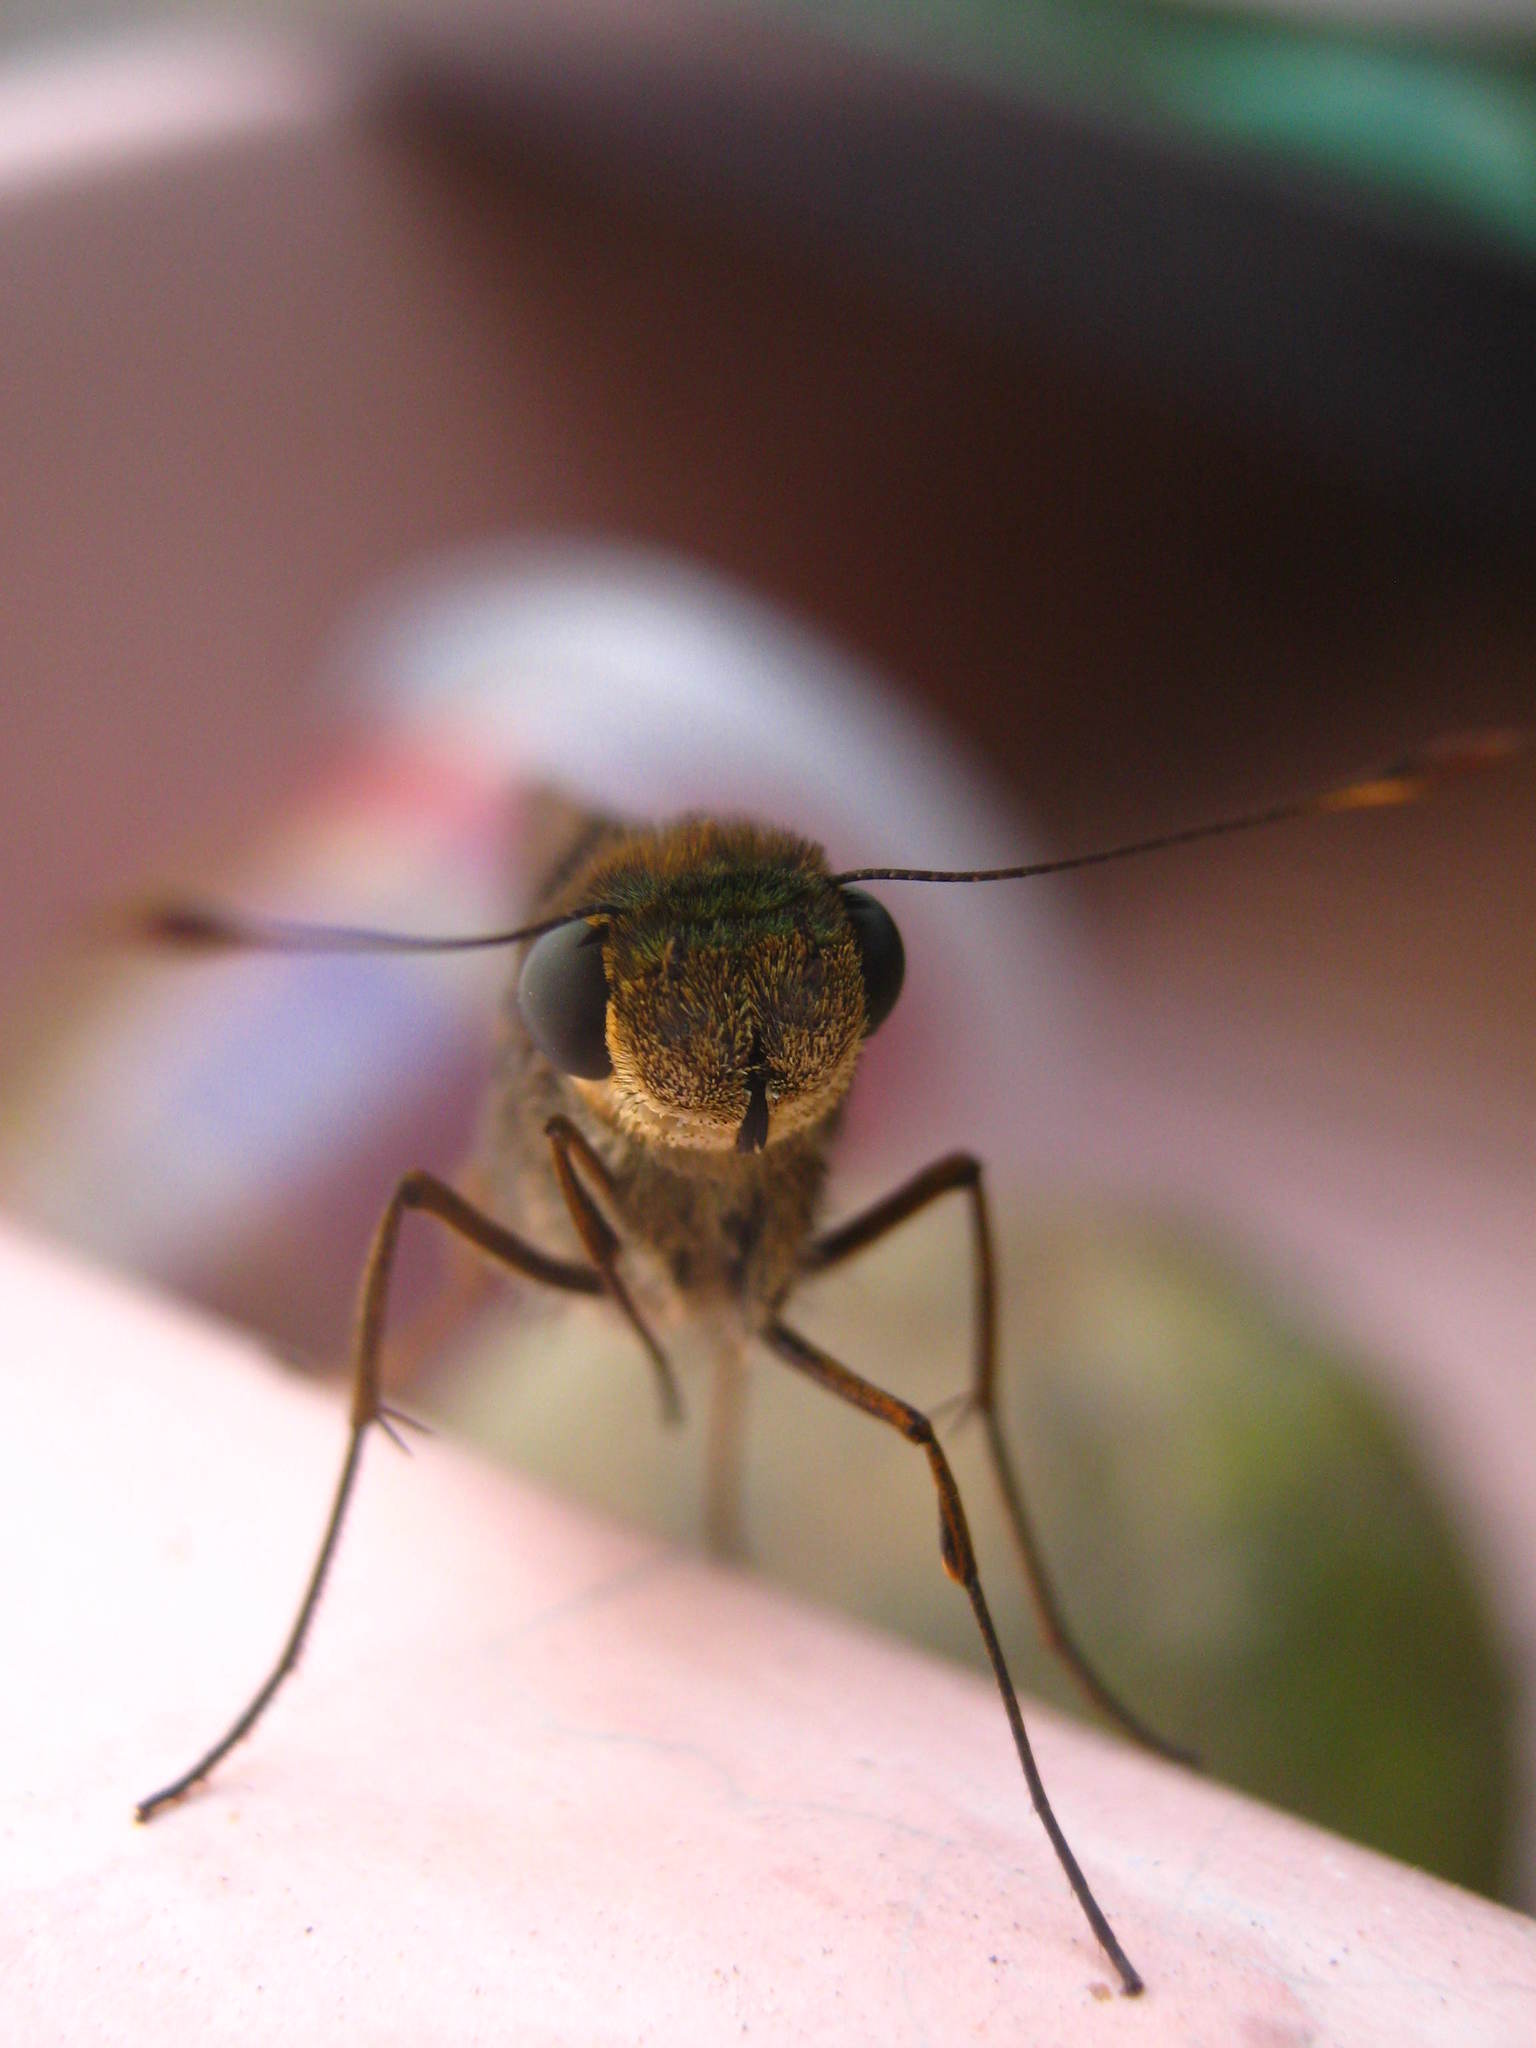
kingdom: Animalia
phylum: Arthropoda
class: Insecta
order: Lepidoptera
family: Hesperiidae
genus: Panoquina
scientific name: Panoquina fusina
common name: Evans' skipper
